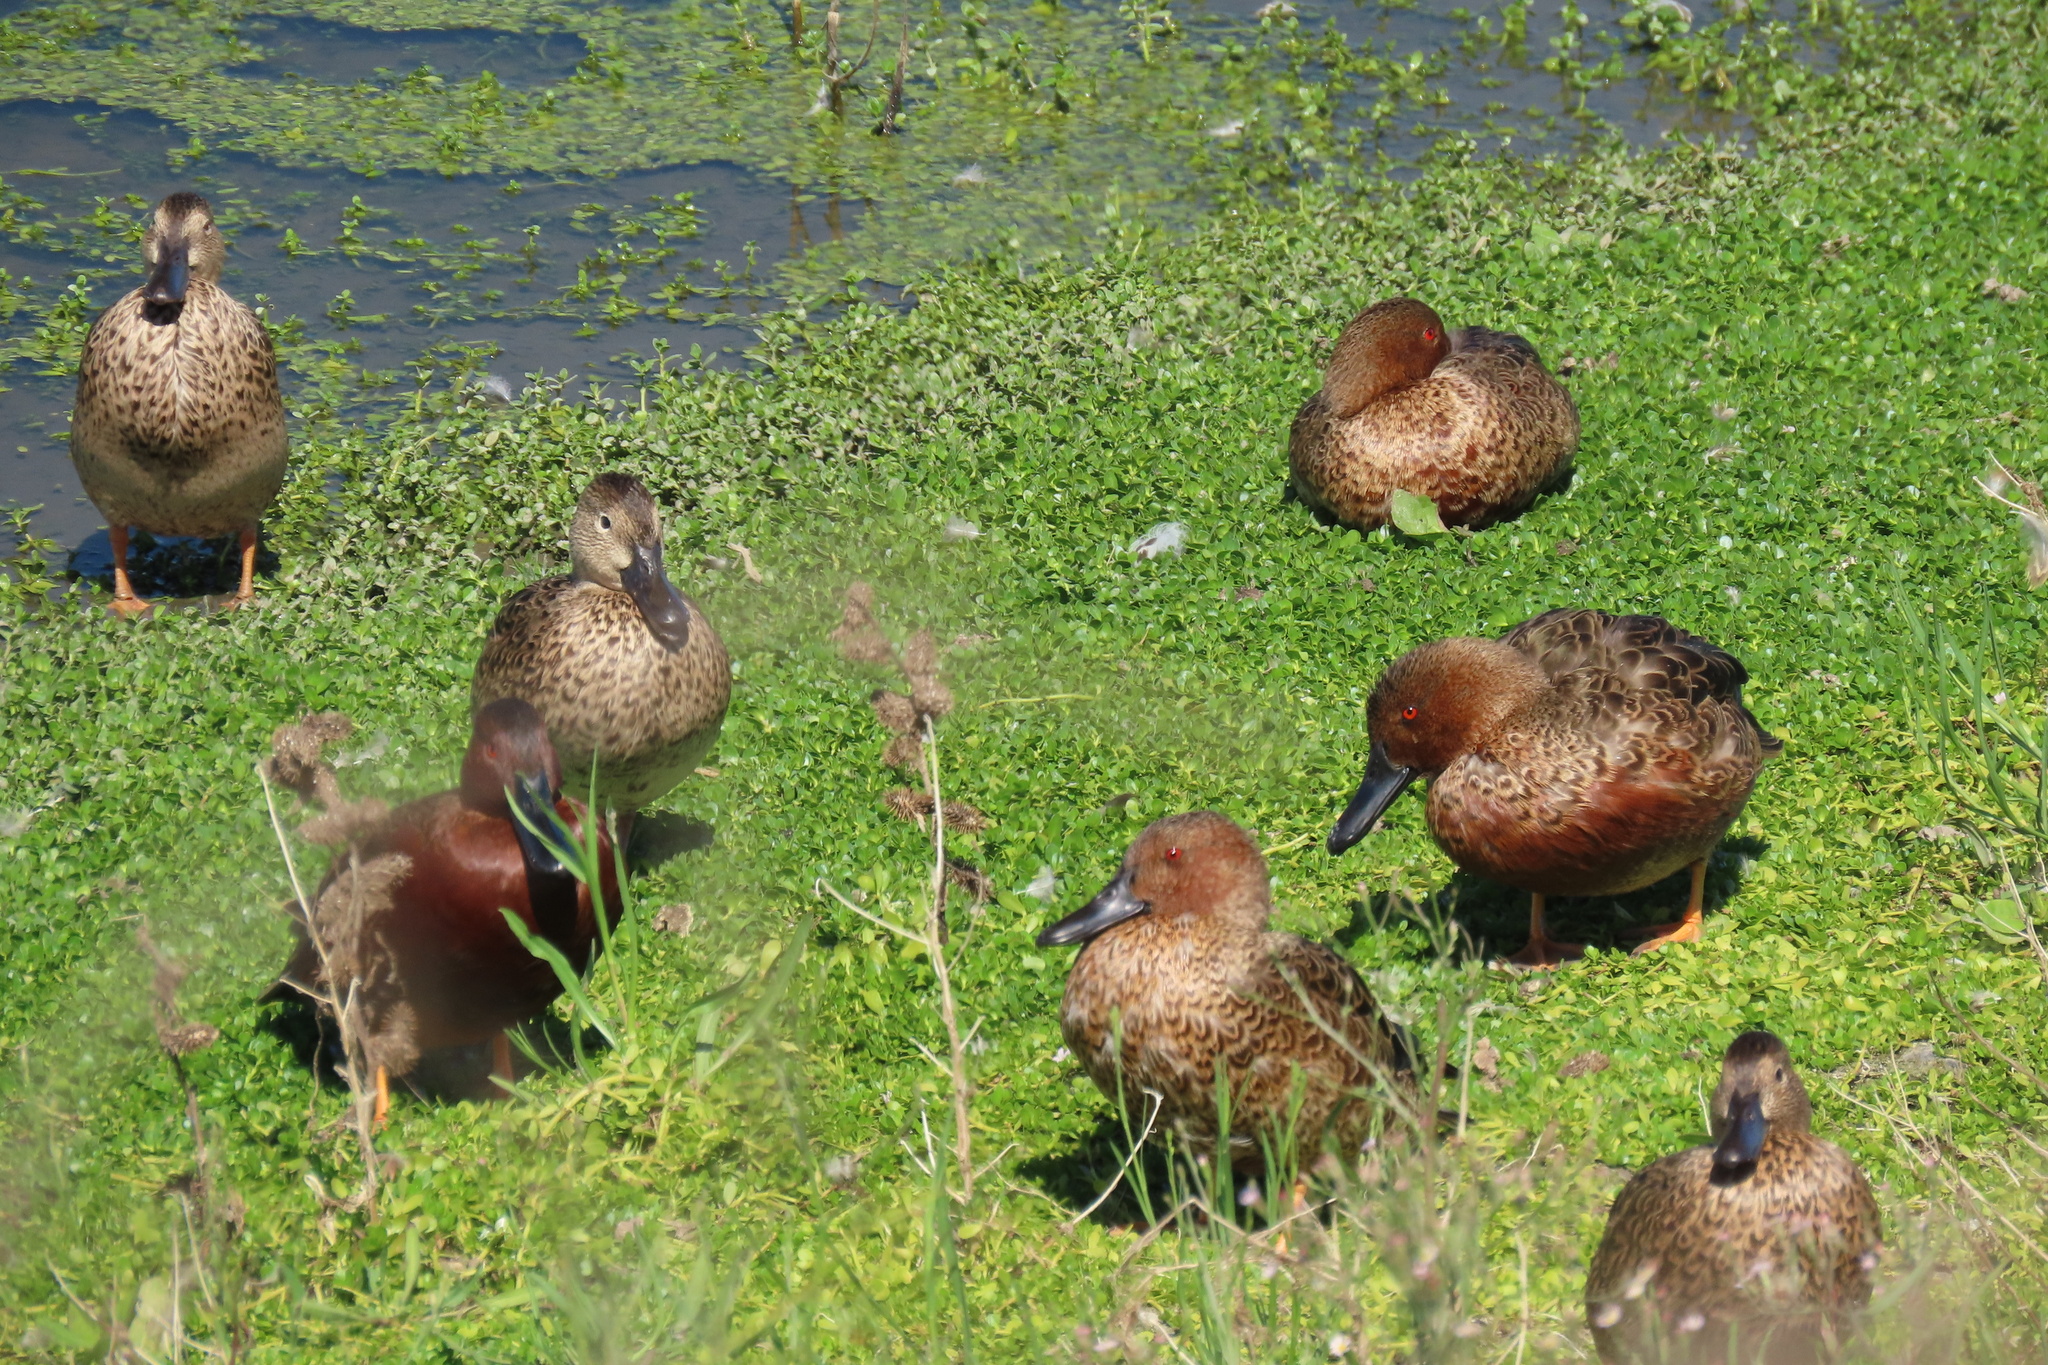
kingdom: Animalia
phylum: Chordata
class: Aves
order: Anseriformes
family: Anatidae
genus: Spatula
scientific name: Spatula cyanoptera
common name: Cinnamon teal
